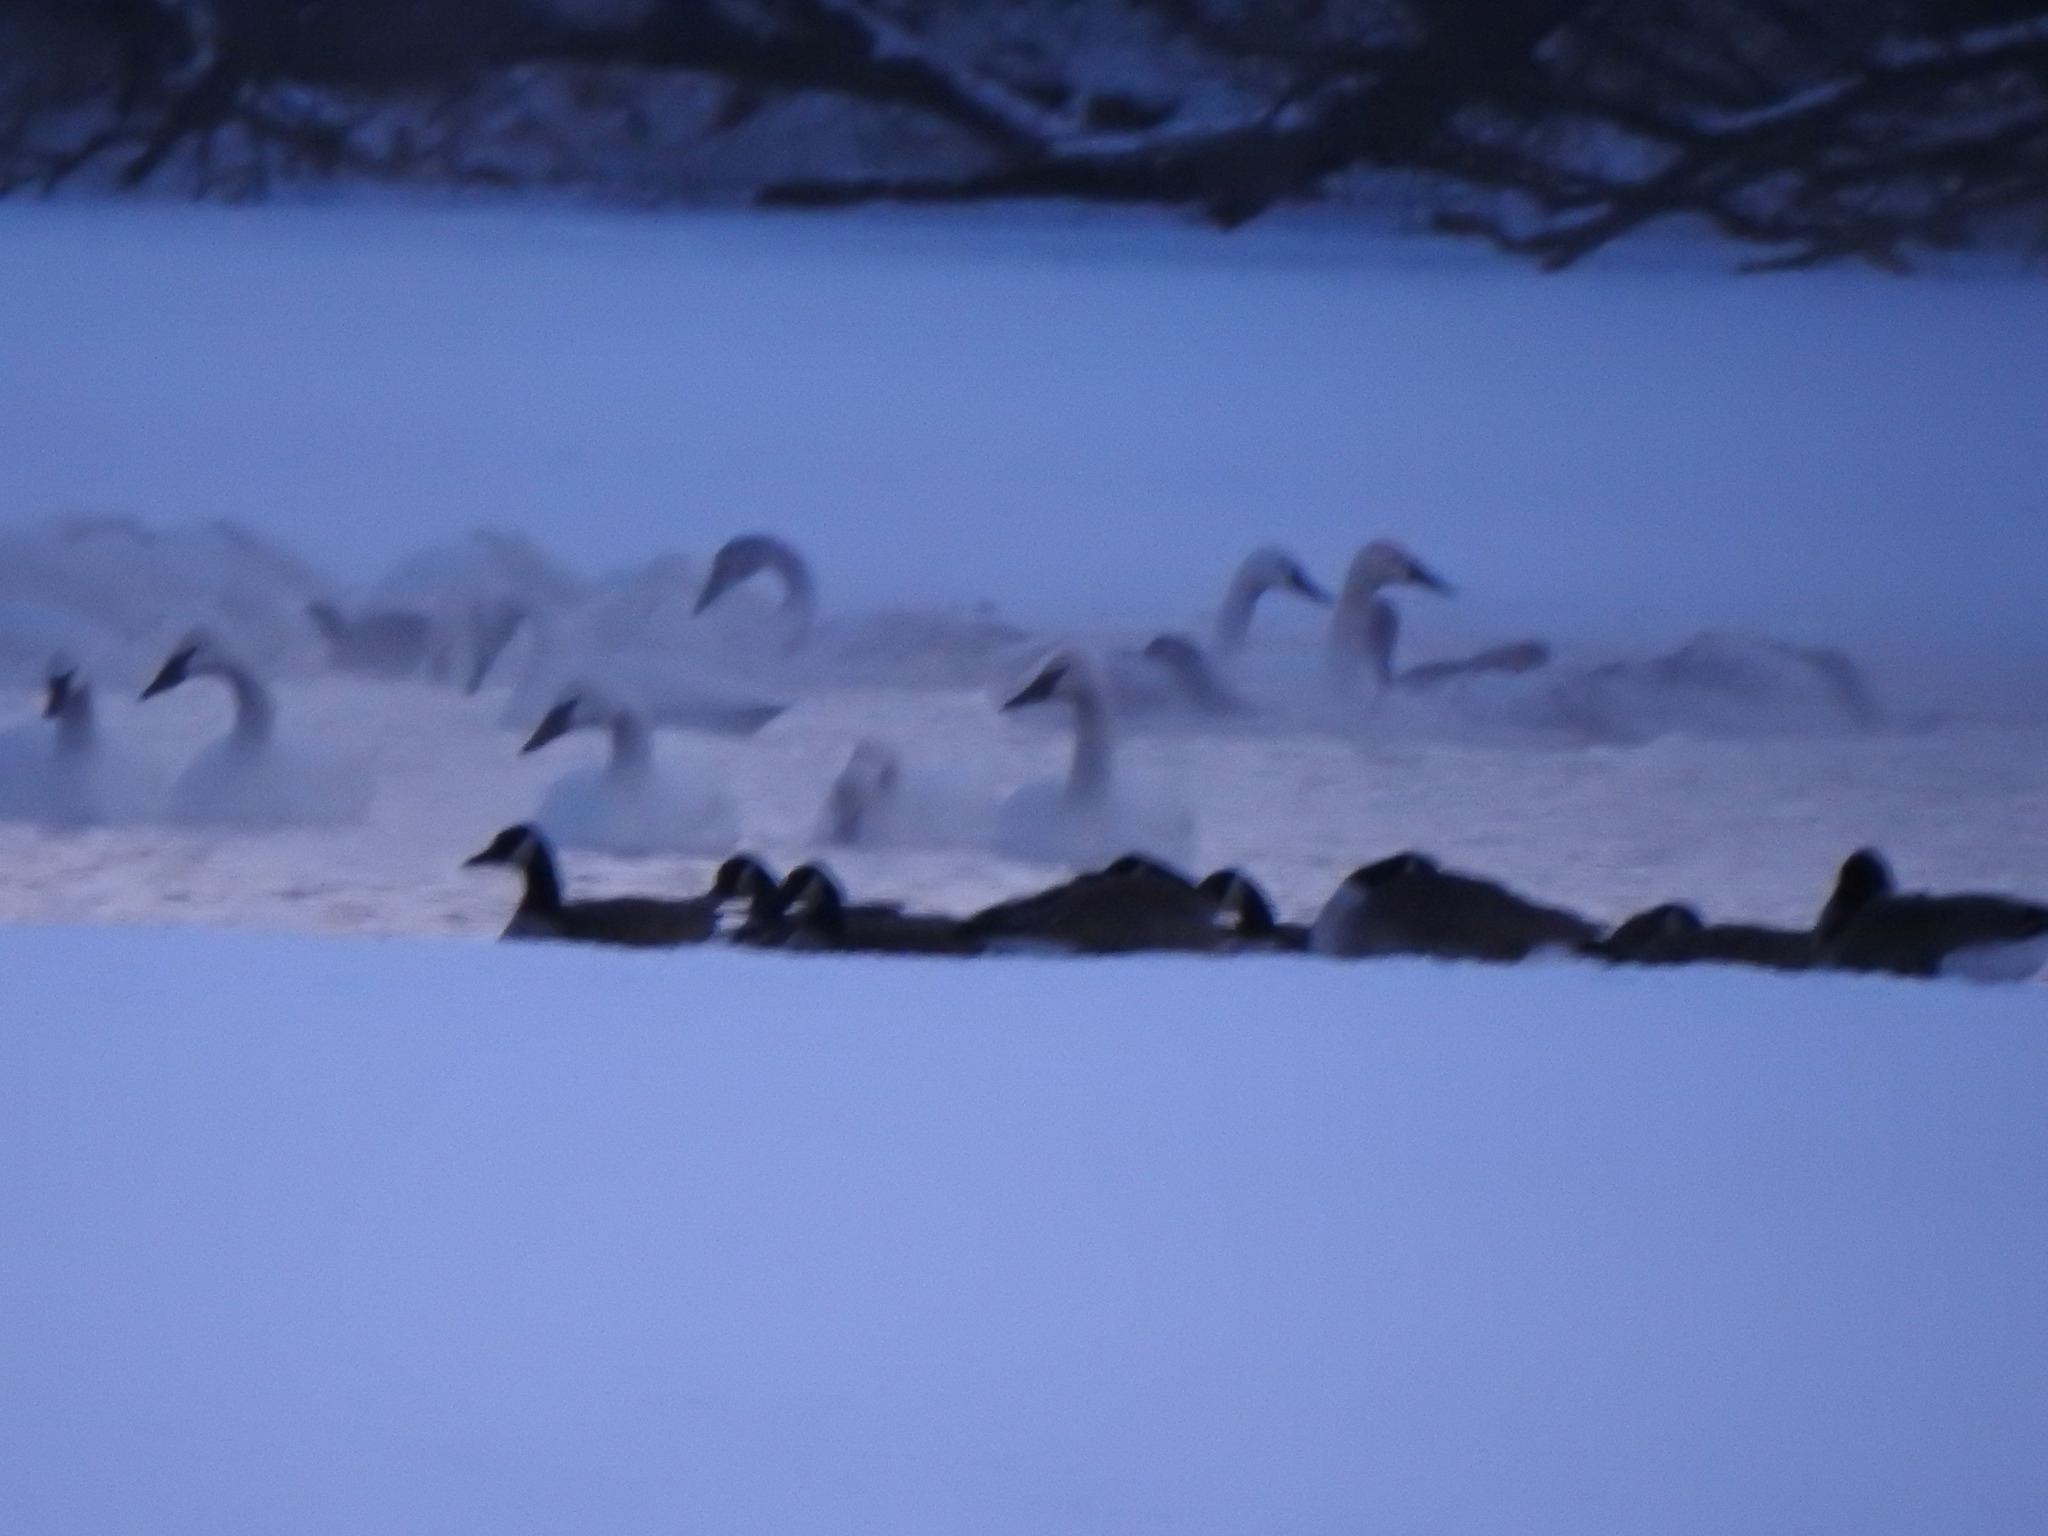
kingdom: Animalia
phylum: Chordata
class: Aves
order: Anseriformes
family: Anatidae
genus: Branta
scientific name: Branta canadensis
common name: Canada goose
